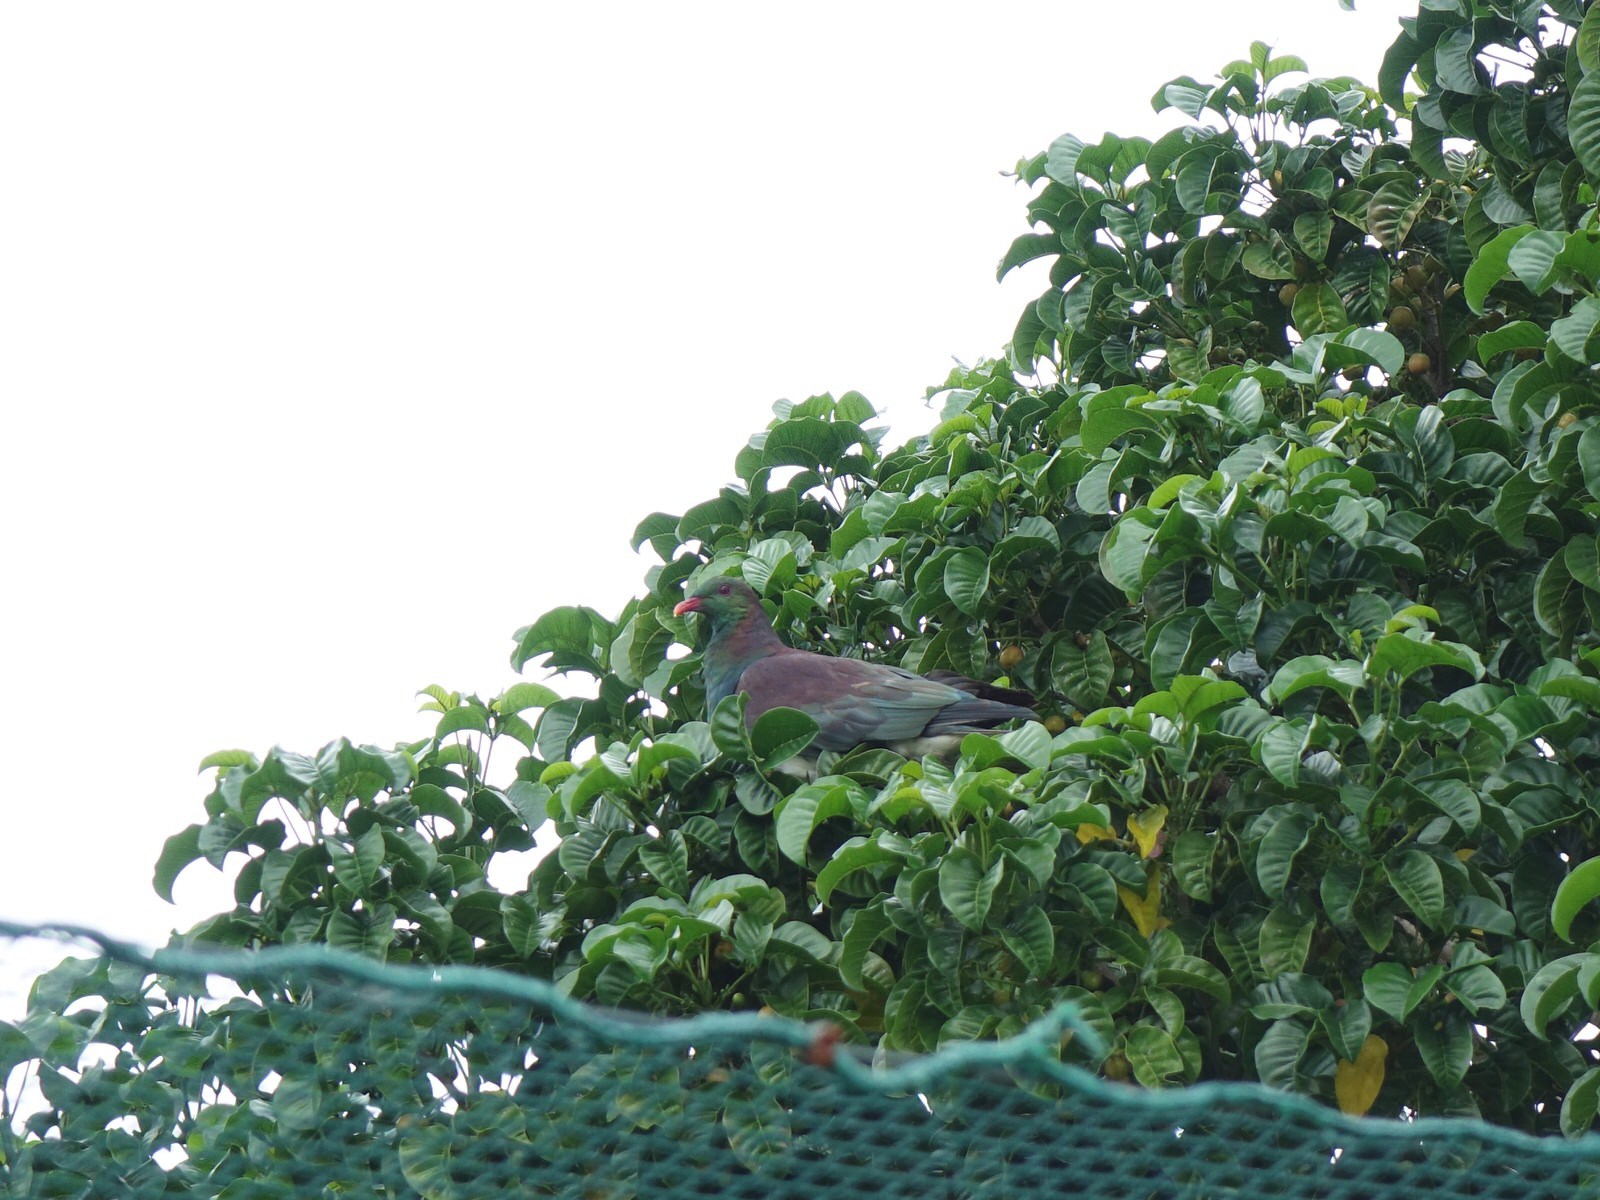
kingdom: Animalia
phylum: Chordata
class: Aves
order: Columbiformes
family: Columbidae
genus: Hemiphaga
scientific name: Hemiphaga novaeseelandiae
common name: New zealand pigeon
